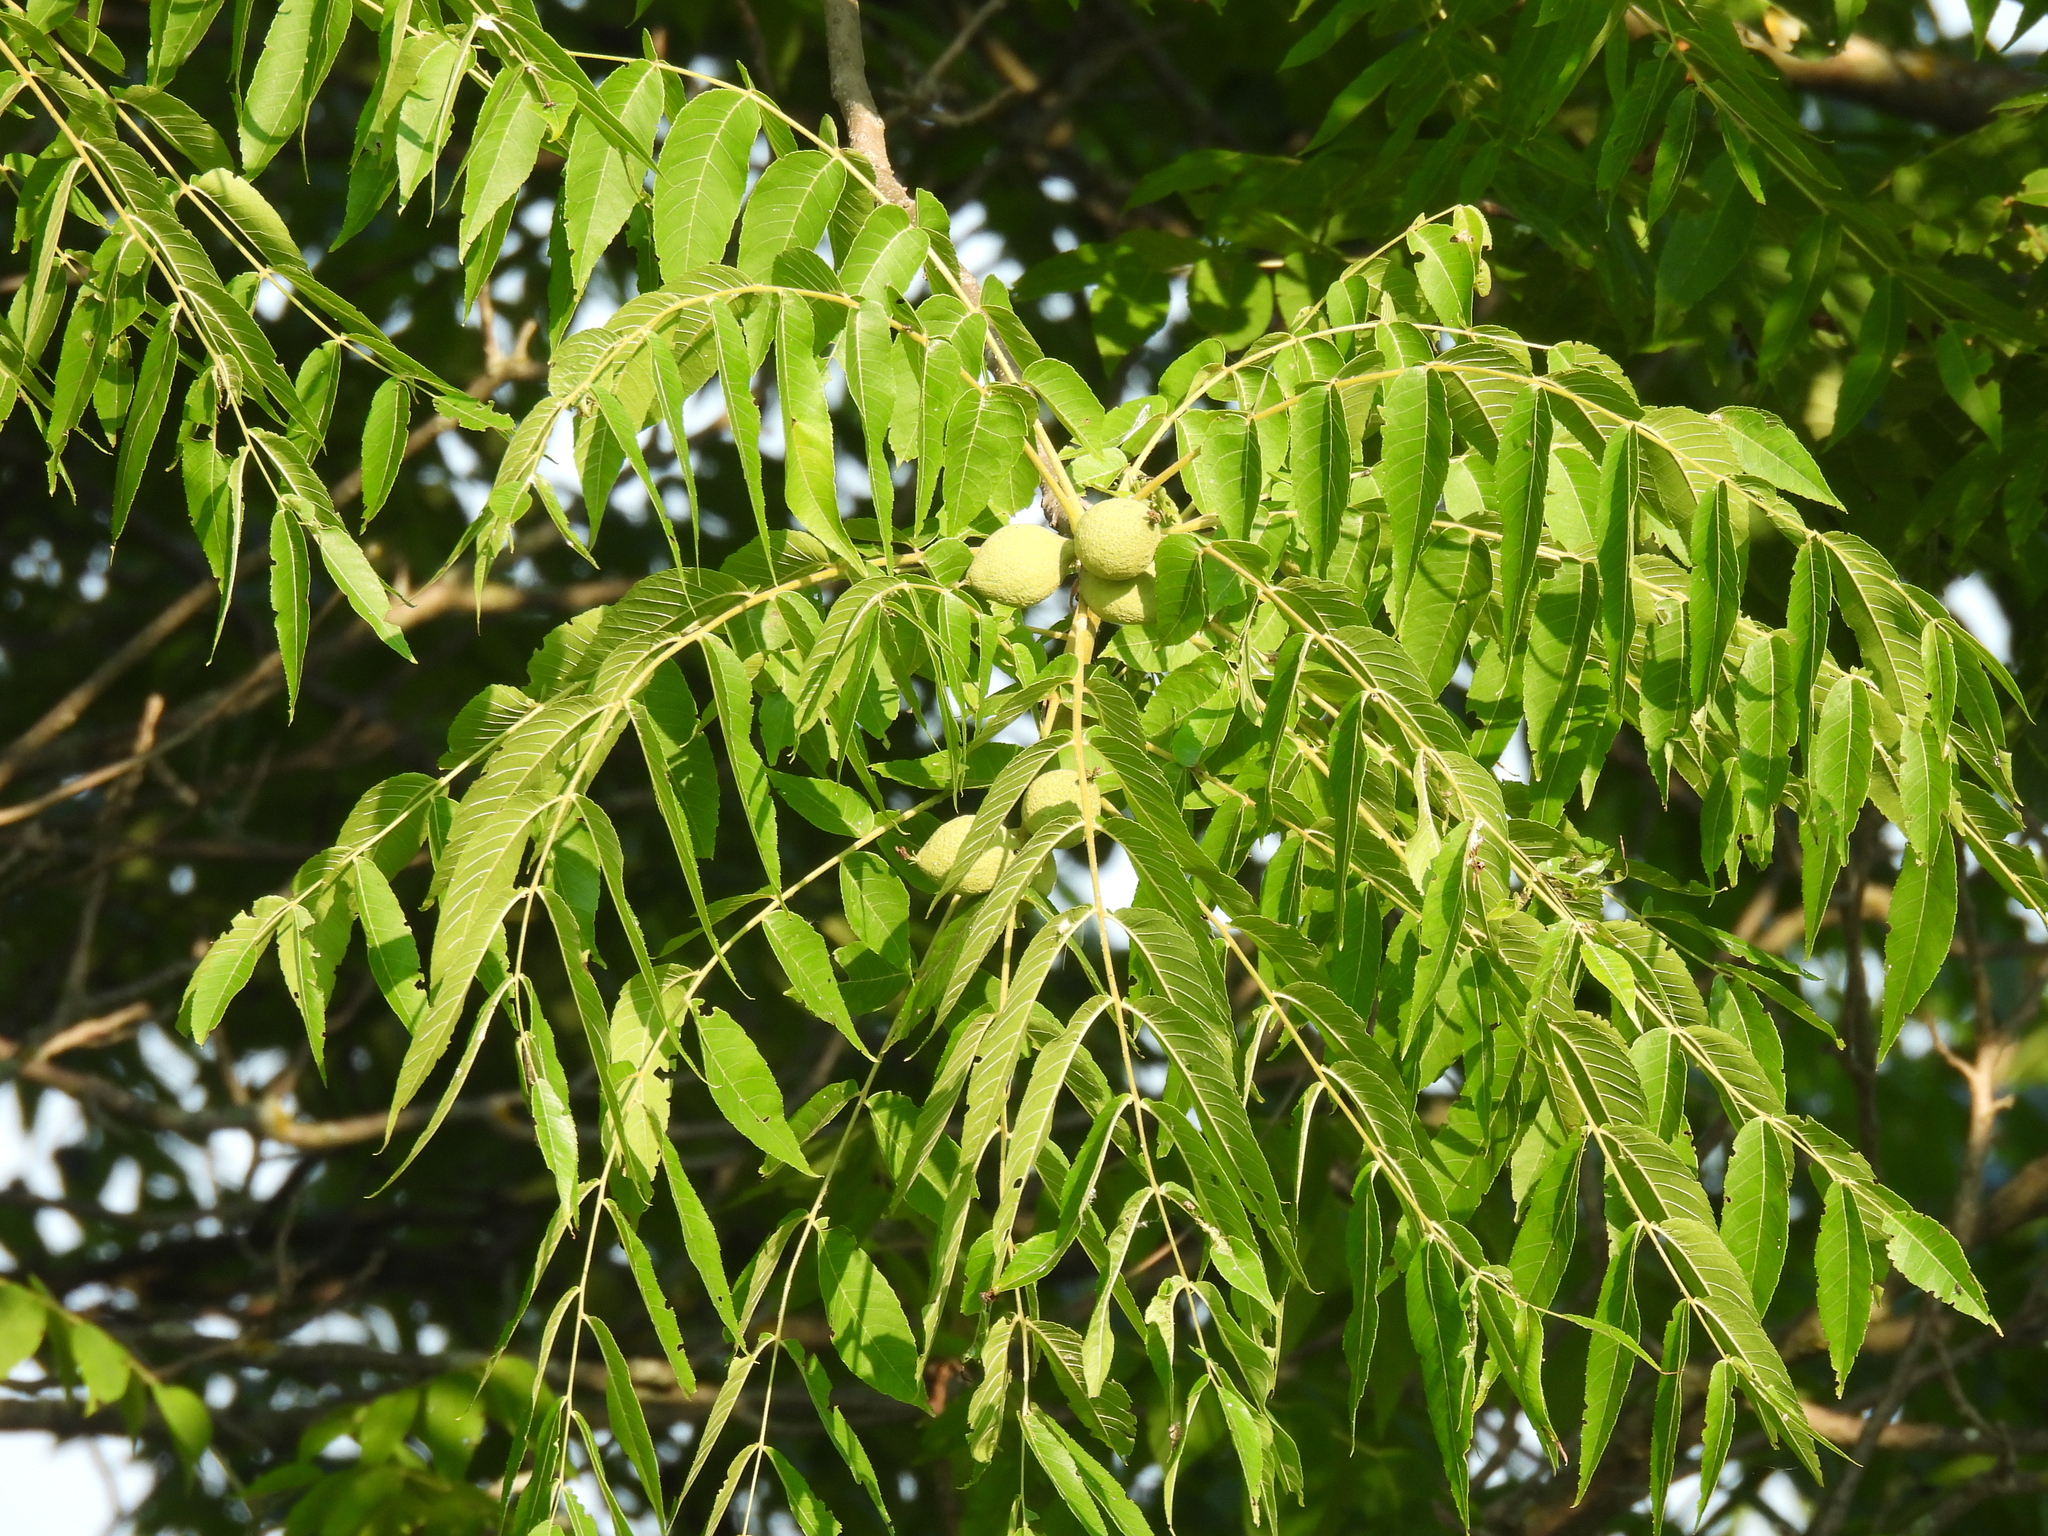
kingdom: Plantae
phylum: Tracheophyta
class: Magnoliopsida
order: Fagales
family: Juglandaceae
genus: Juglans
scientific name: Juglans nigra
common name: Black walnut
